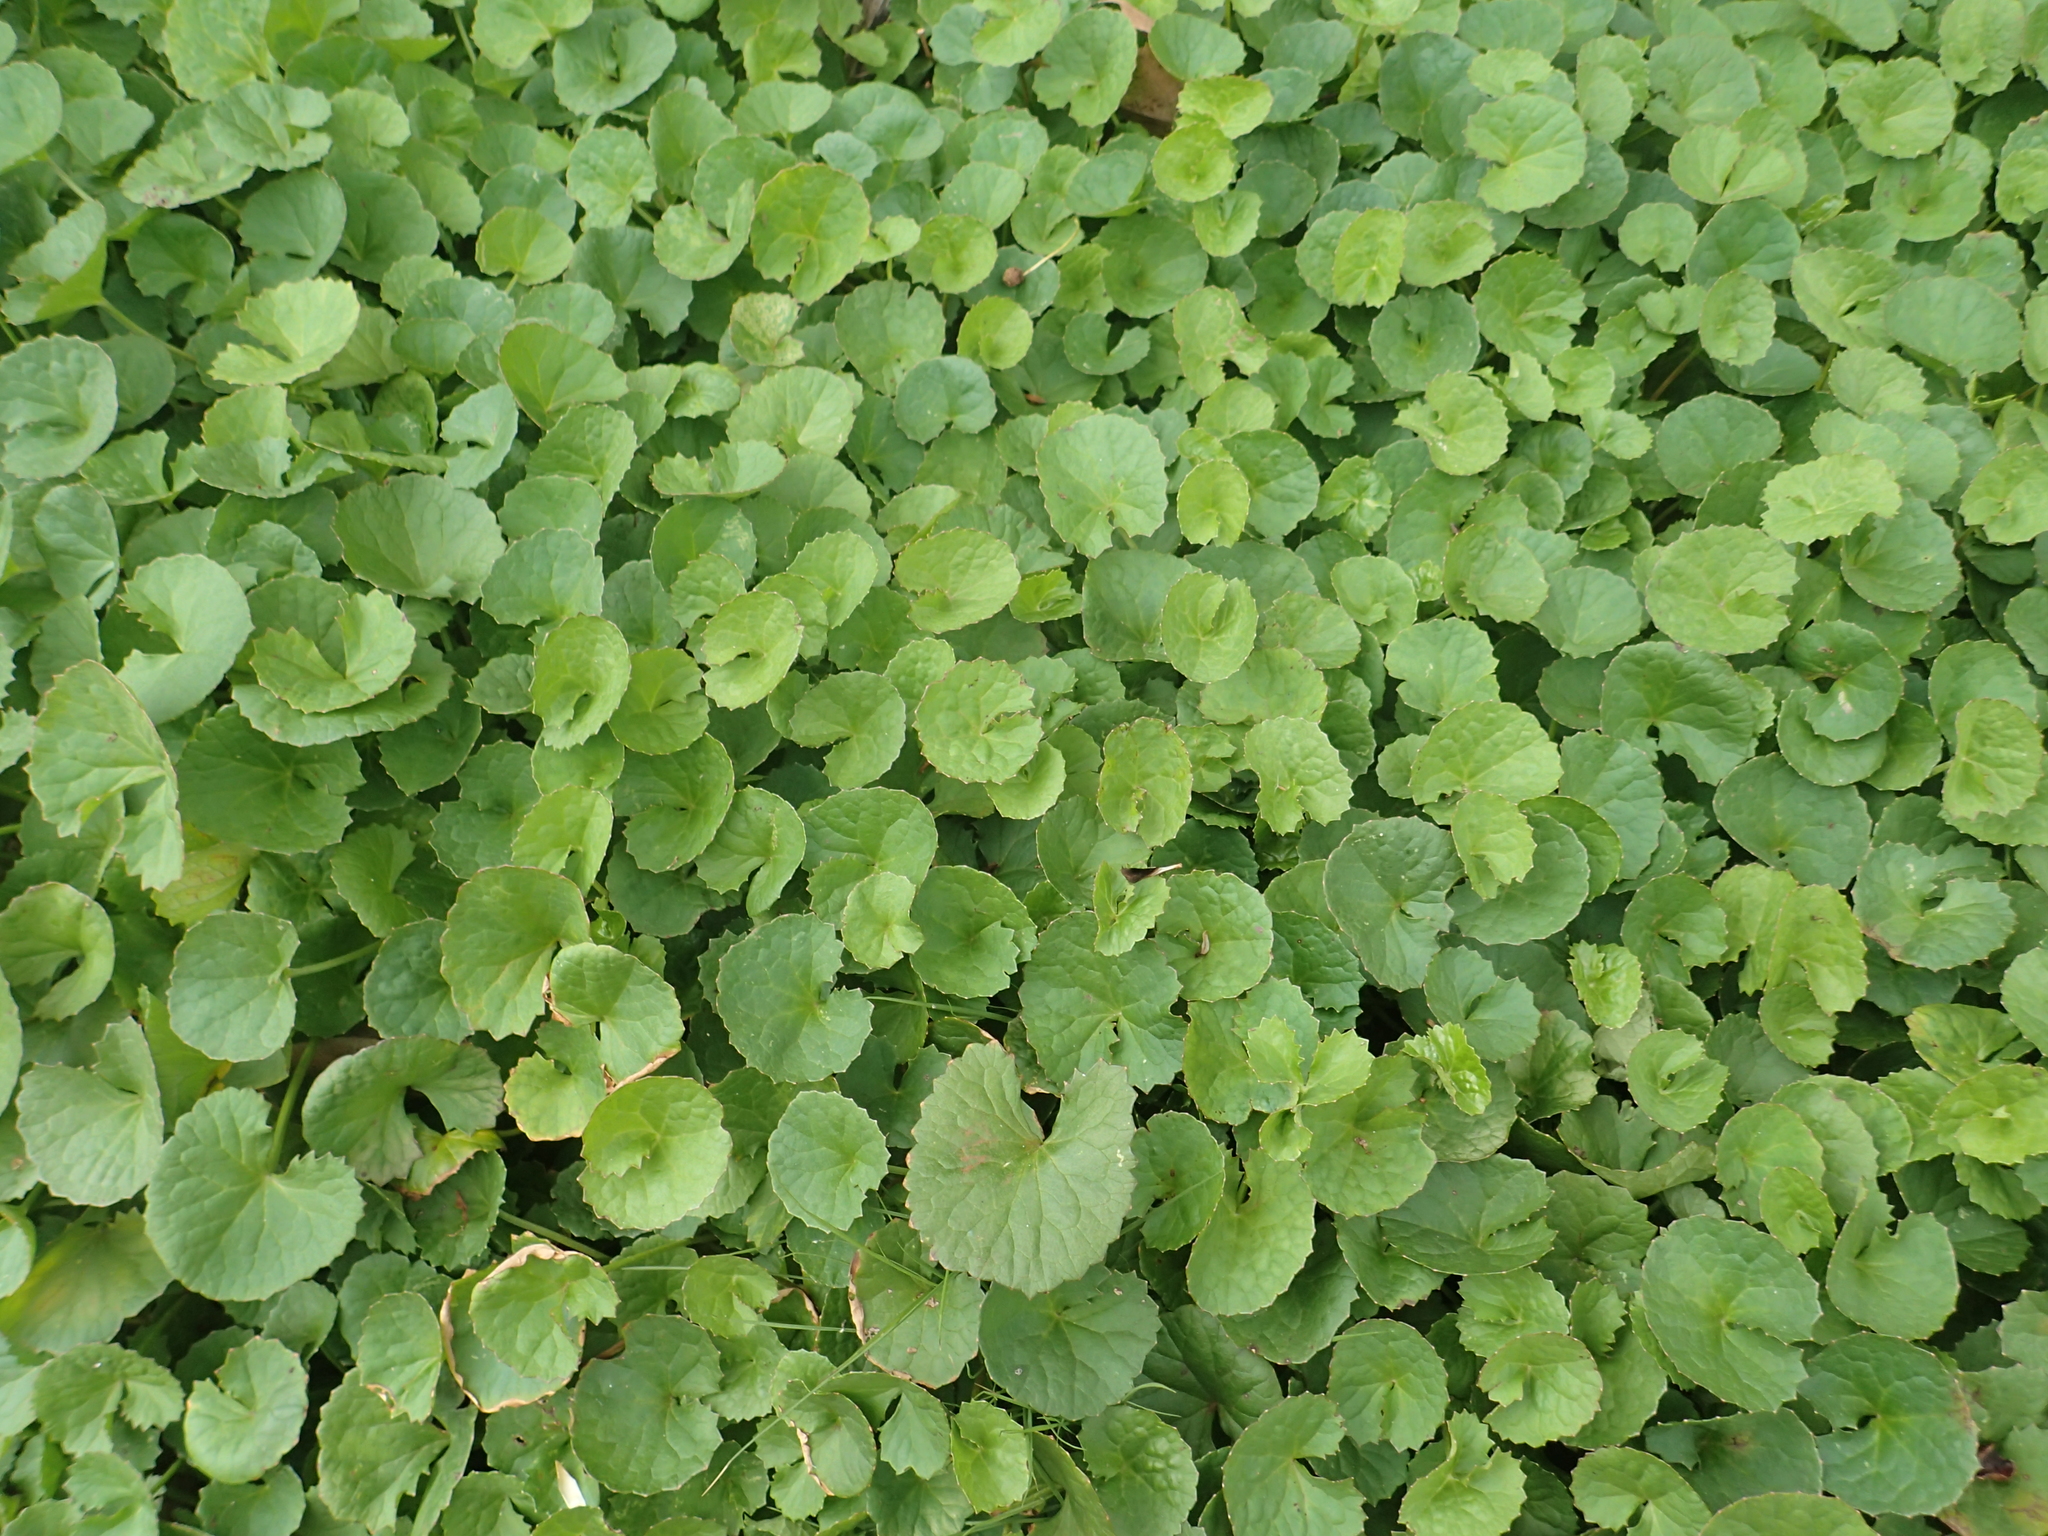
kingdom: Plantae
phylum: Tracheophyta
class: Magnoliopsida
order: Apiales
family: Apiaceae
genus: Centella
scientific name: Centella asiatica
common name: Spadeleaf
